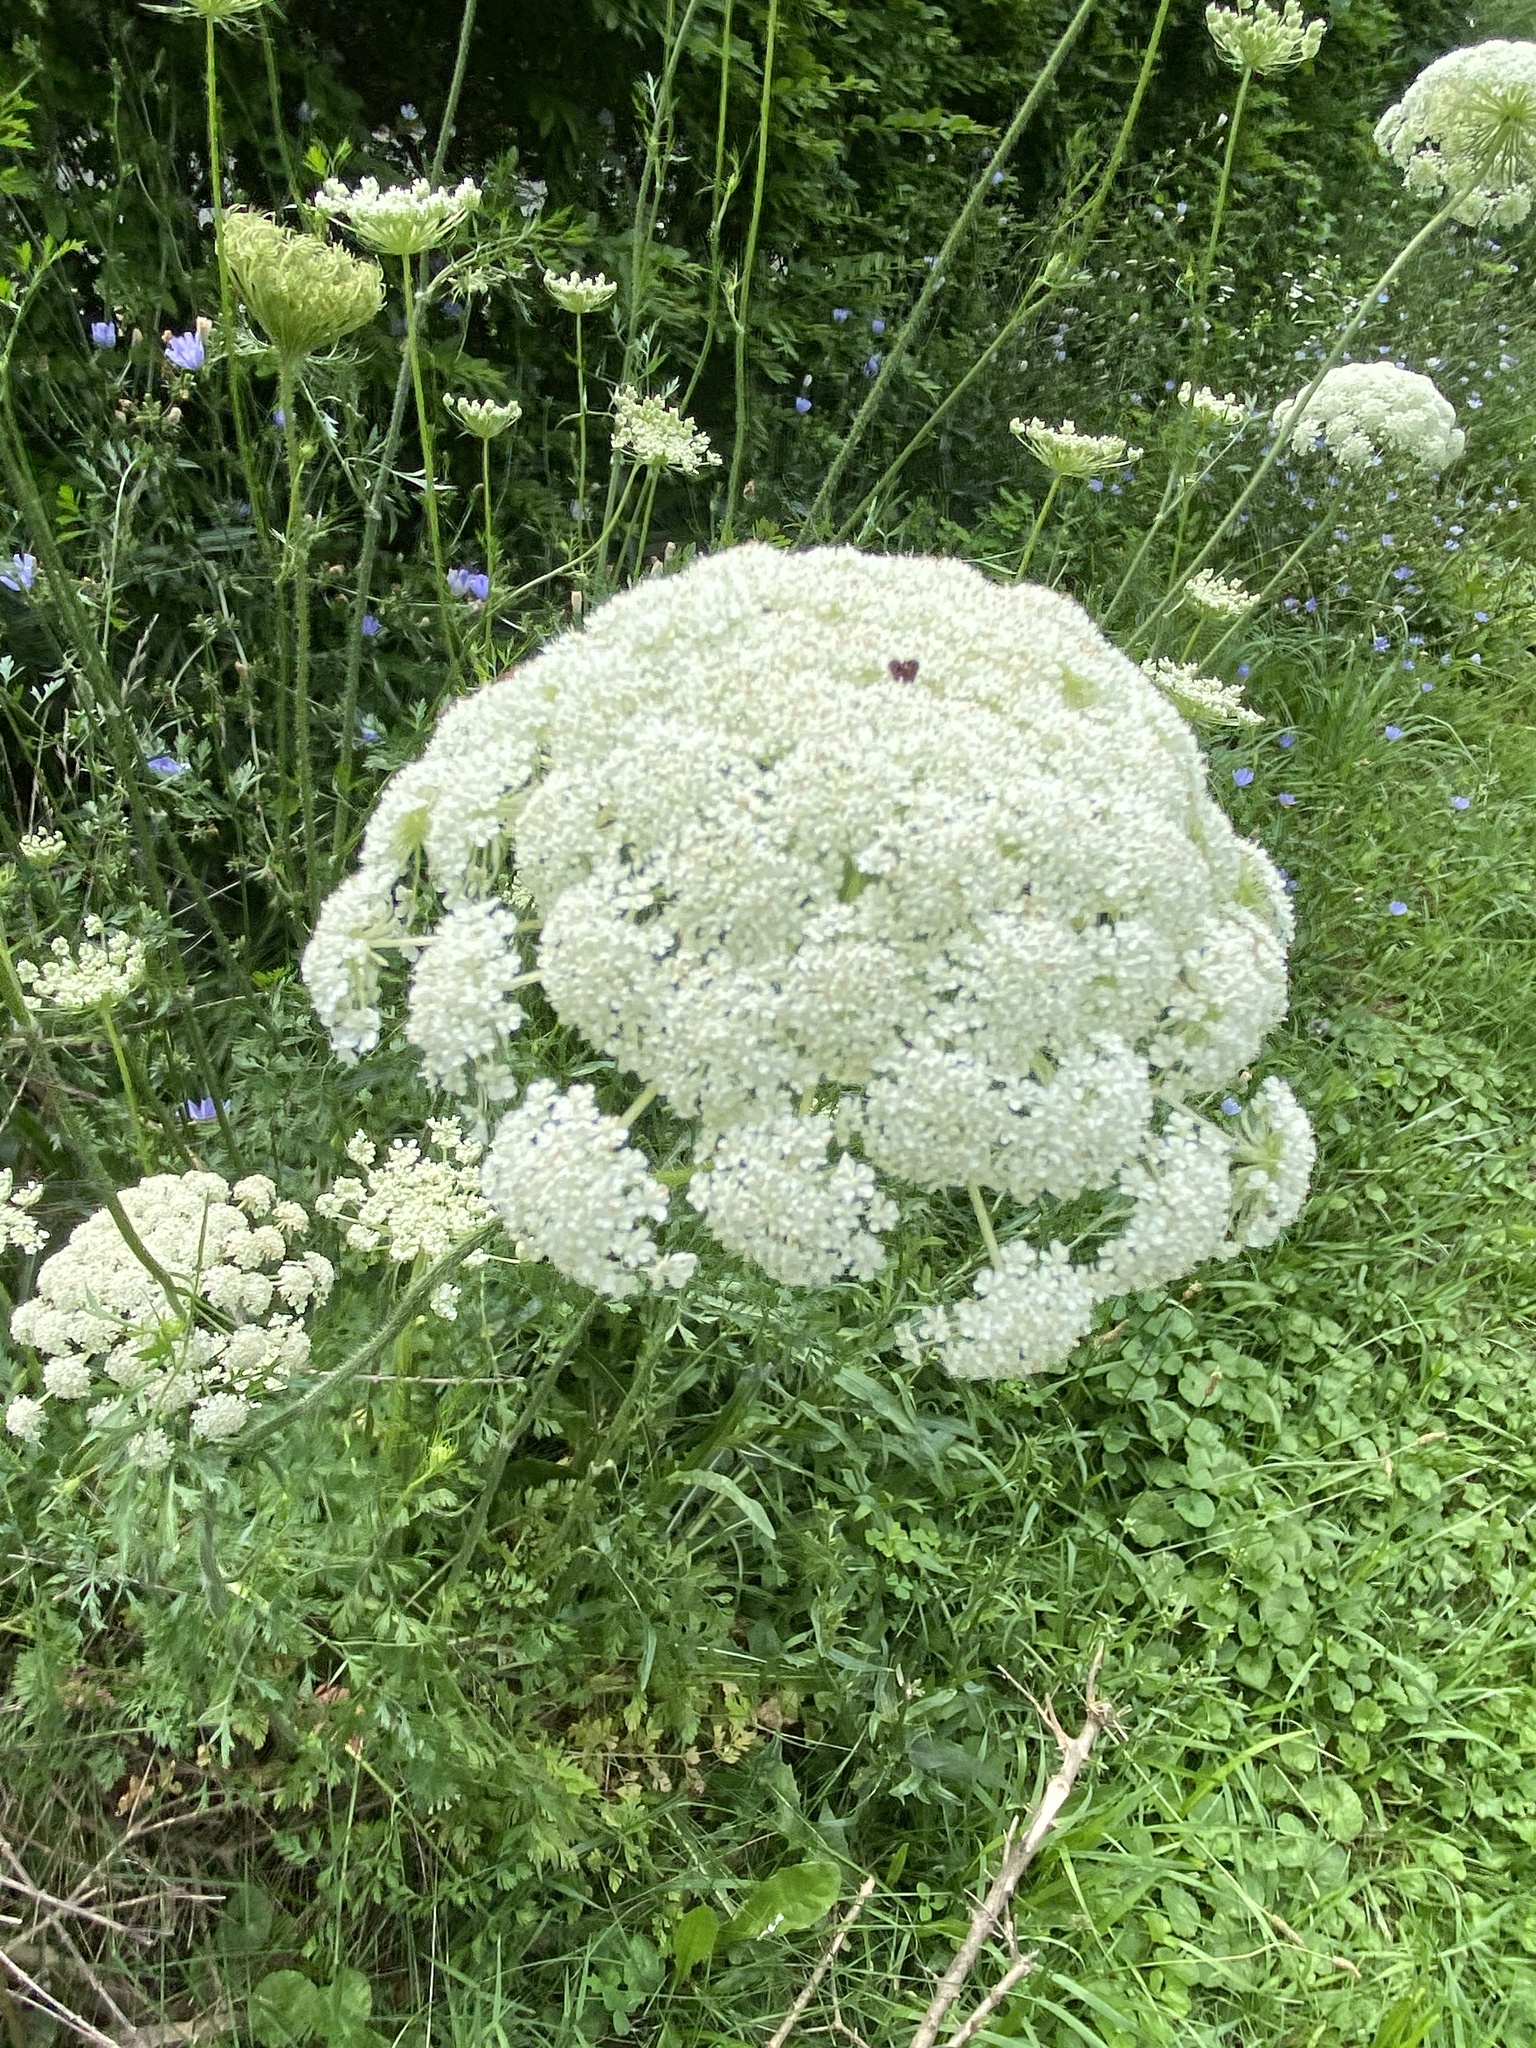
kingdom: Plantae
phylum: Tracheophyta
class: Magnoliopsida
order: Apiales
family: Apiaceae
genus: Daucus
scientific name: Daucus carota
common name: Wild carrot
